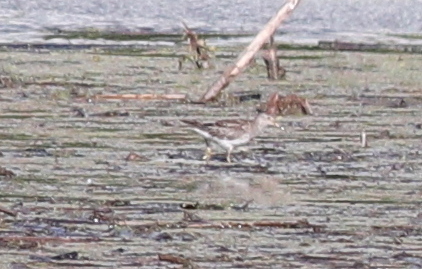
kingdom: Animalia
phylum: Chordata
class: Aves
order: Charadriiformes
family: Scolopacidae
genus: Calidris
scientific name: Calidris melanotos
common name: Pectoral sandpiper
